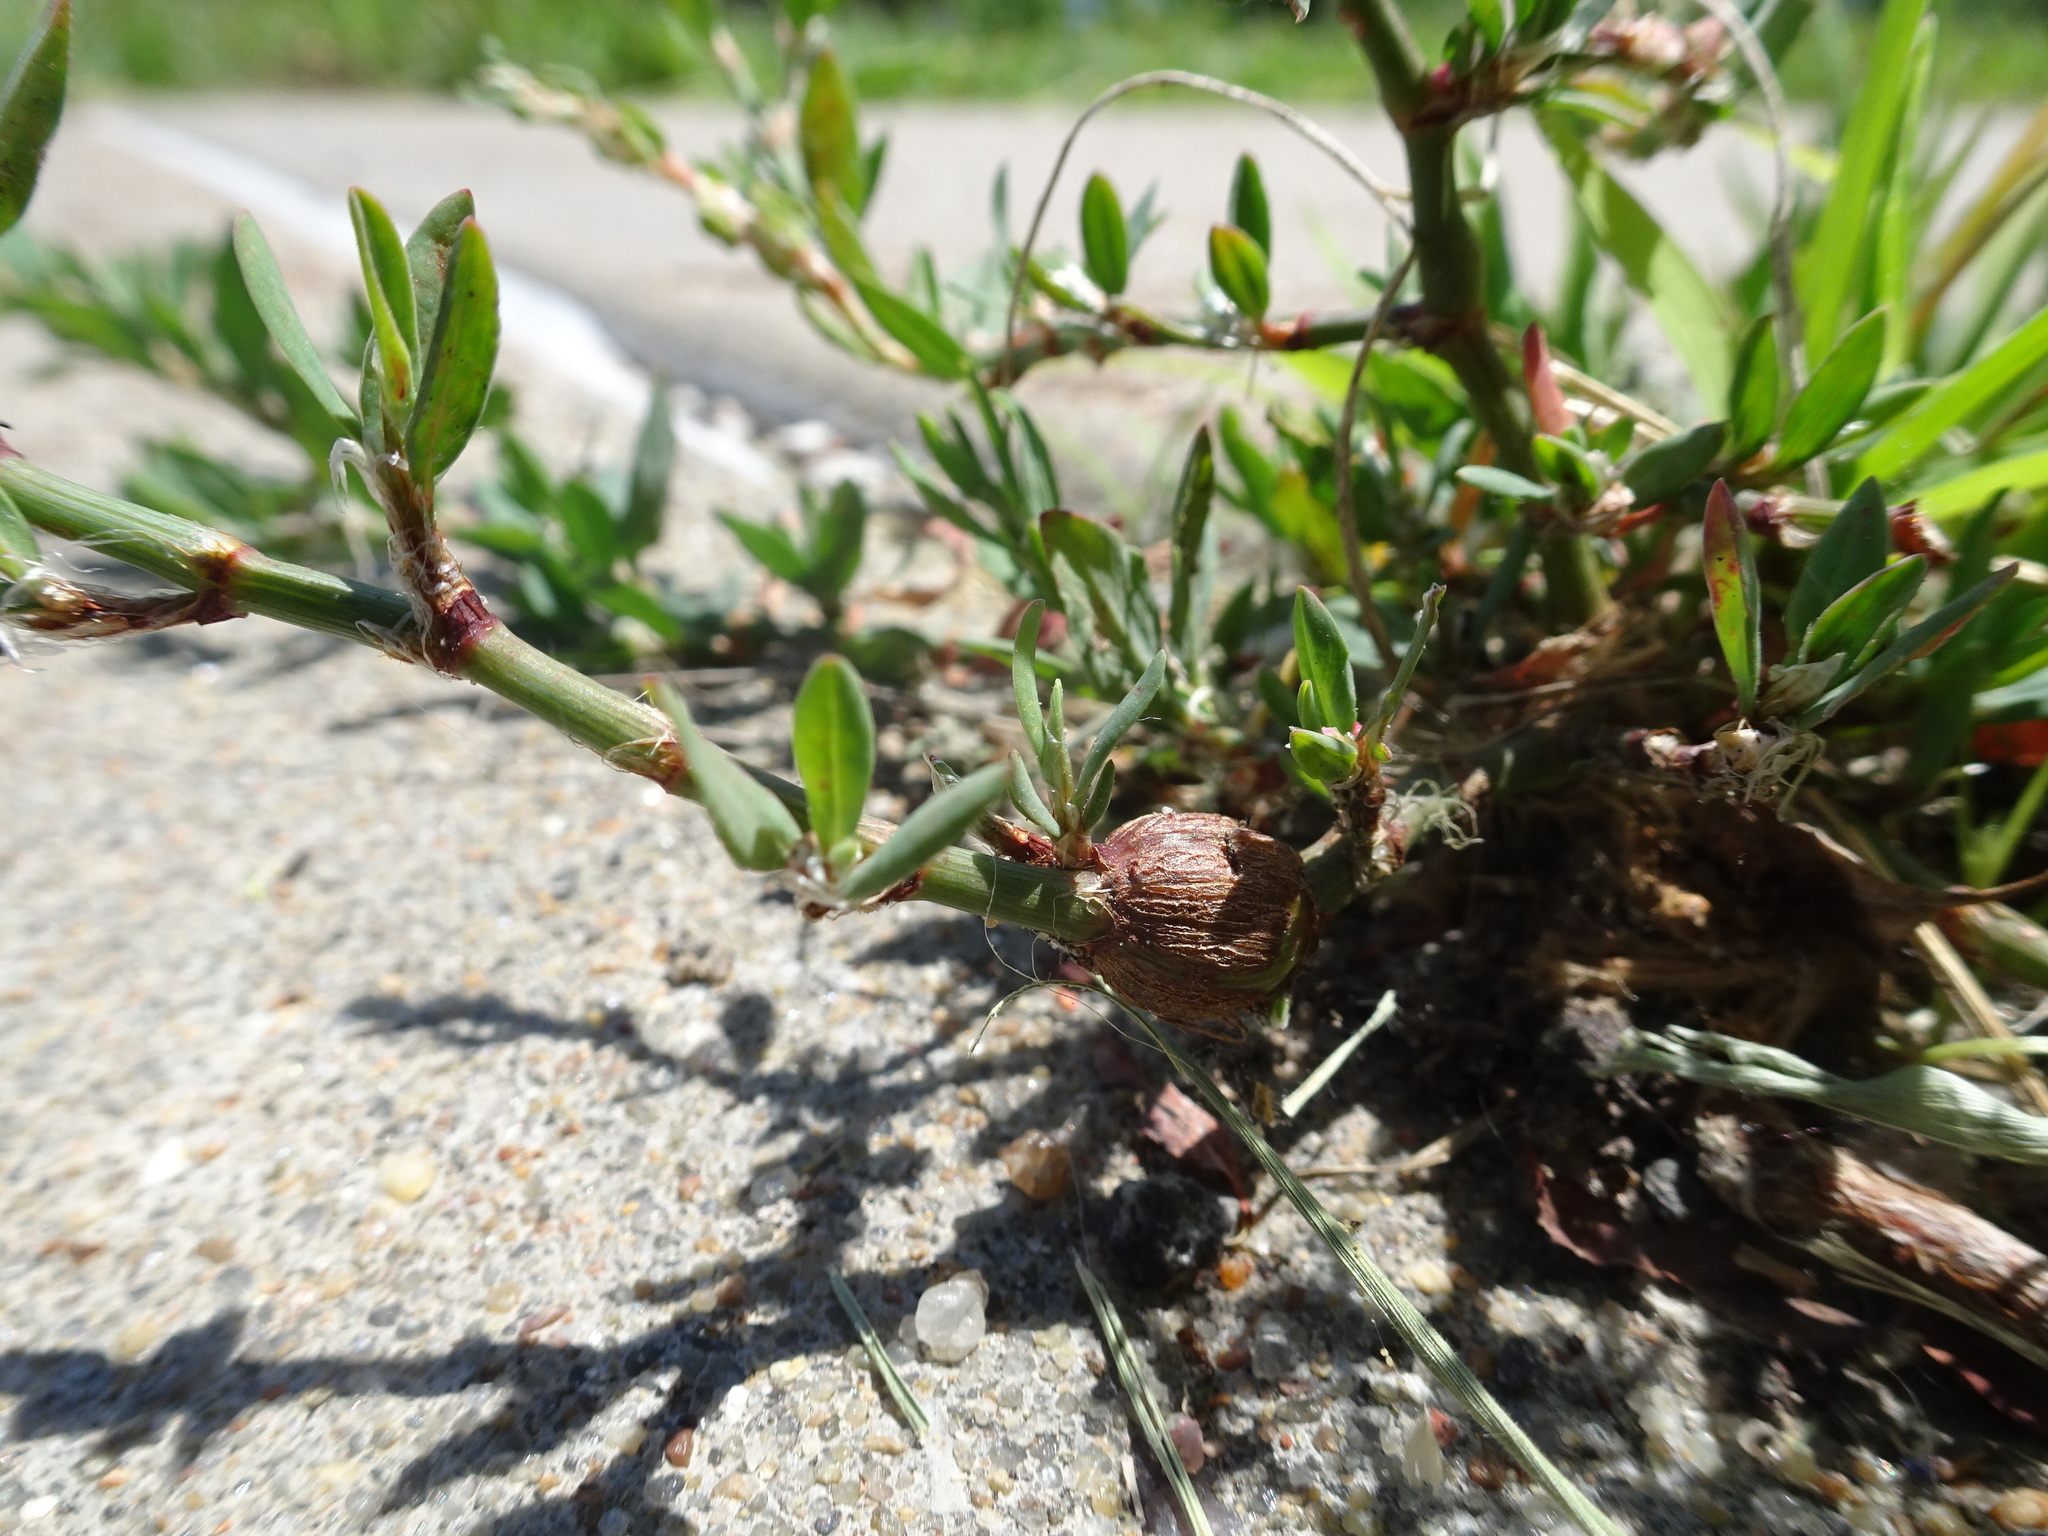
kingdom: Animalia
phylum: Arthropoda
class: Insecta
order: Coleoptera
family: Curculionidae
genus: Lixus
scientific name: Lixus musculus
